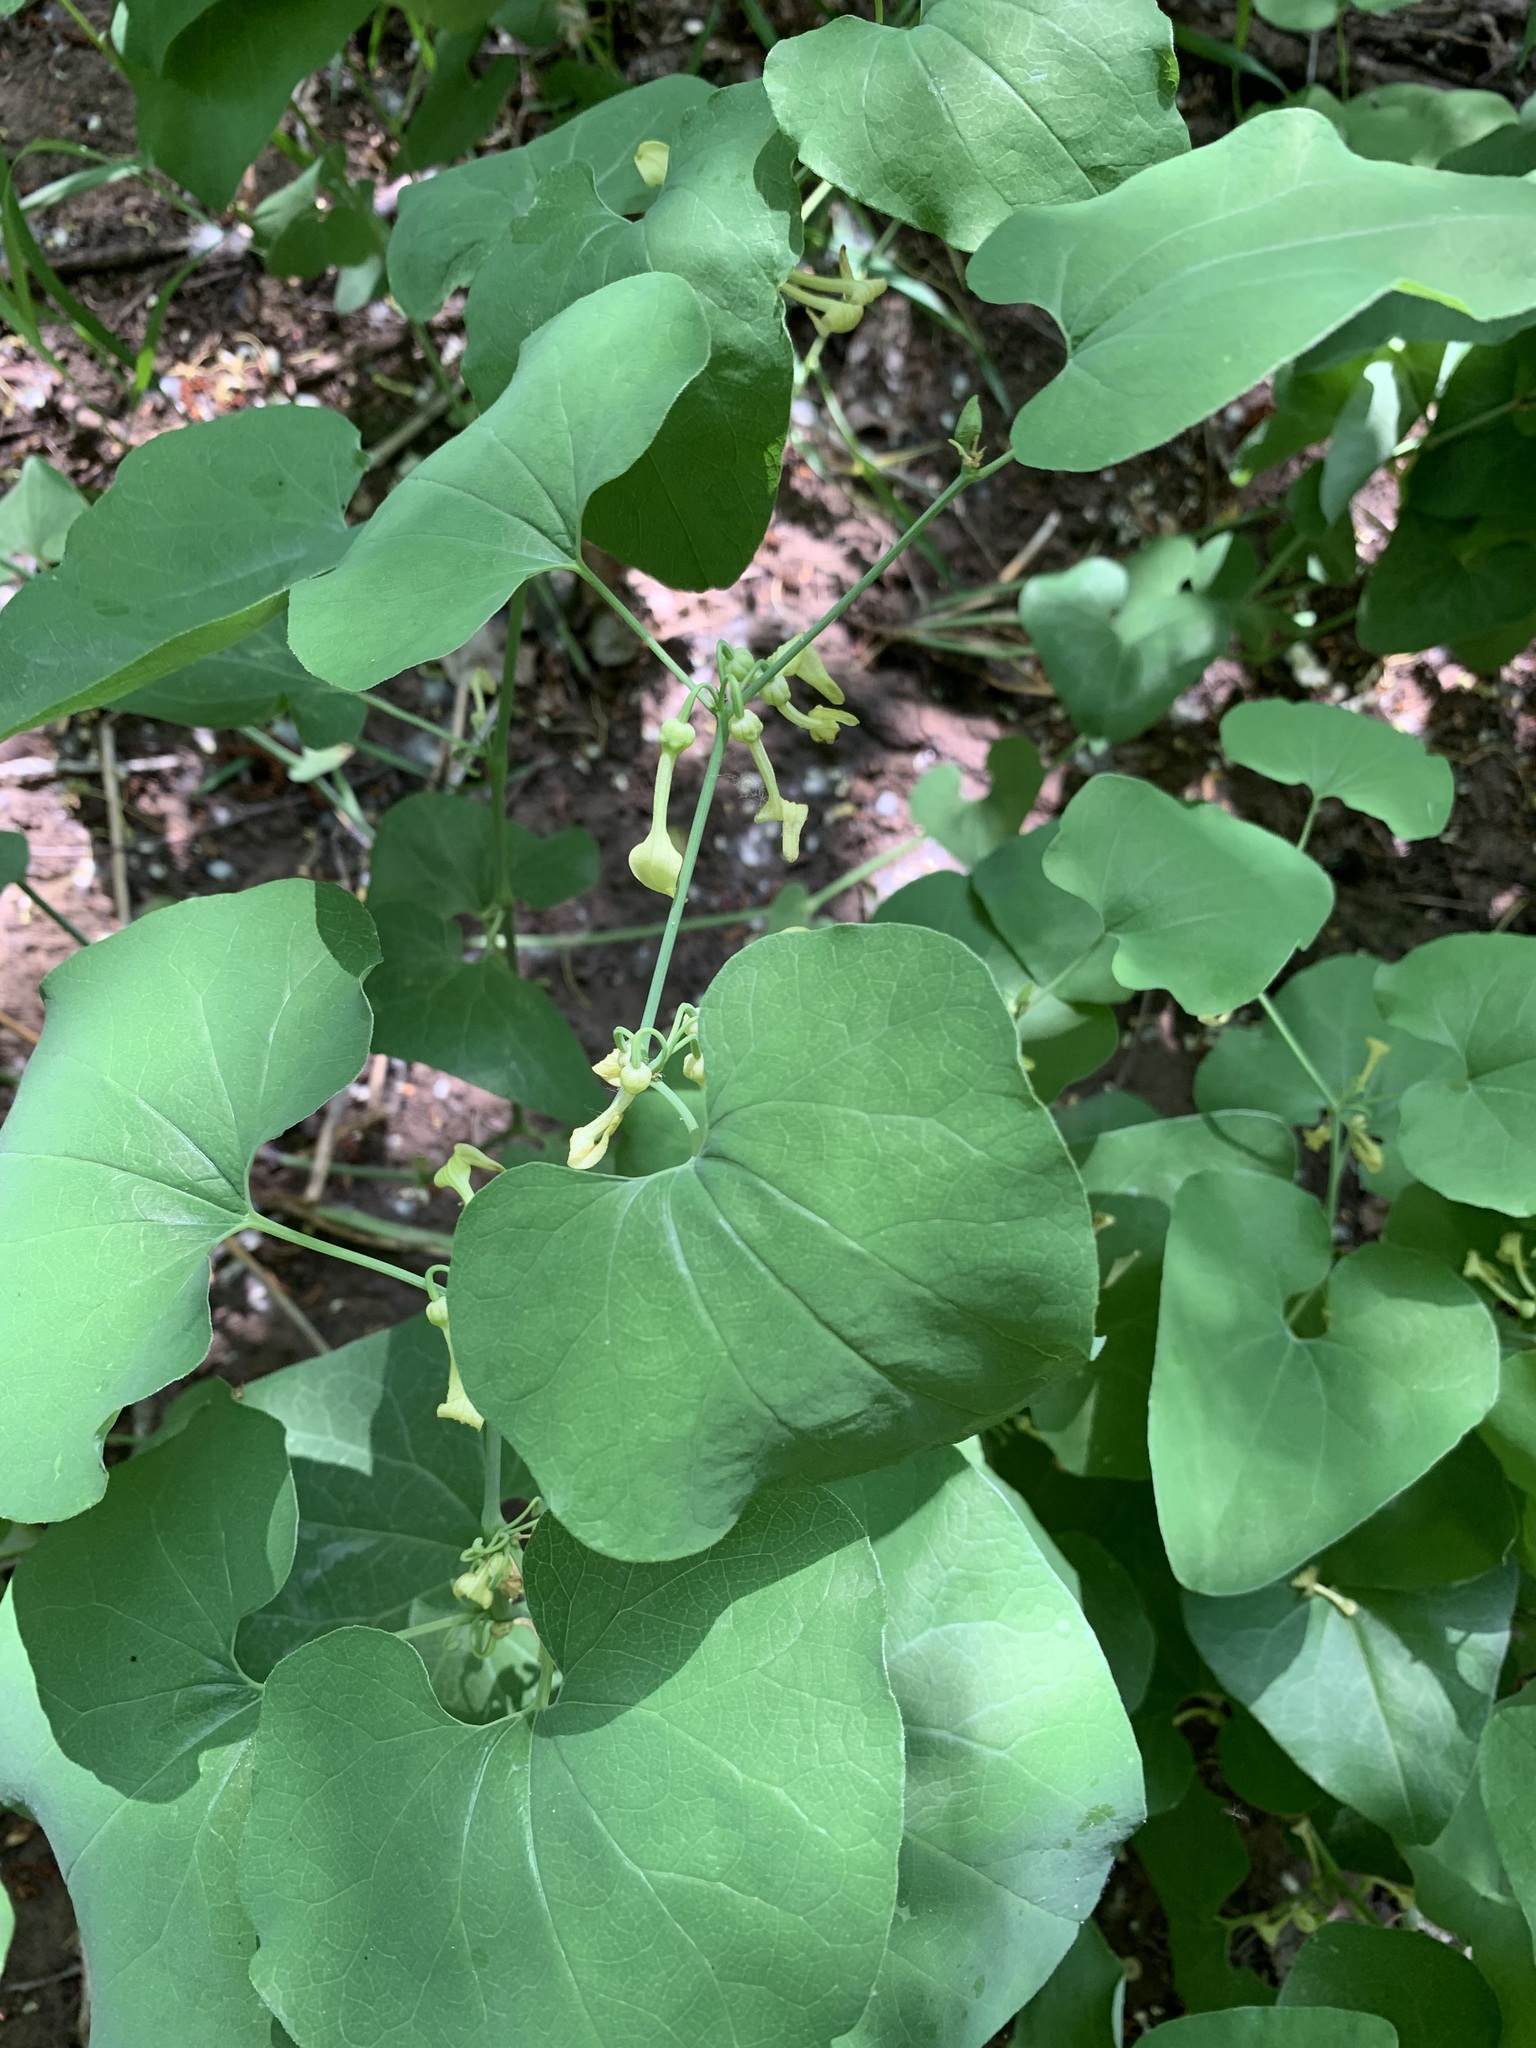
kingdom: Plantae
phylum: Tracheophyta
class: Magnoliopsida
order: Piperales
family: Aristolochiaceae
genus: Aristolochia
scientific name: Aristolochia clematitis
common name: Birthwort
